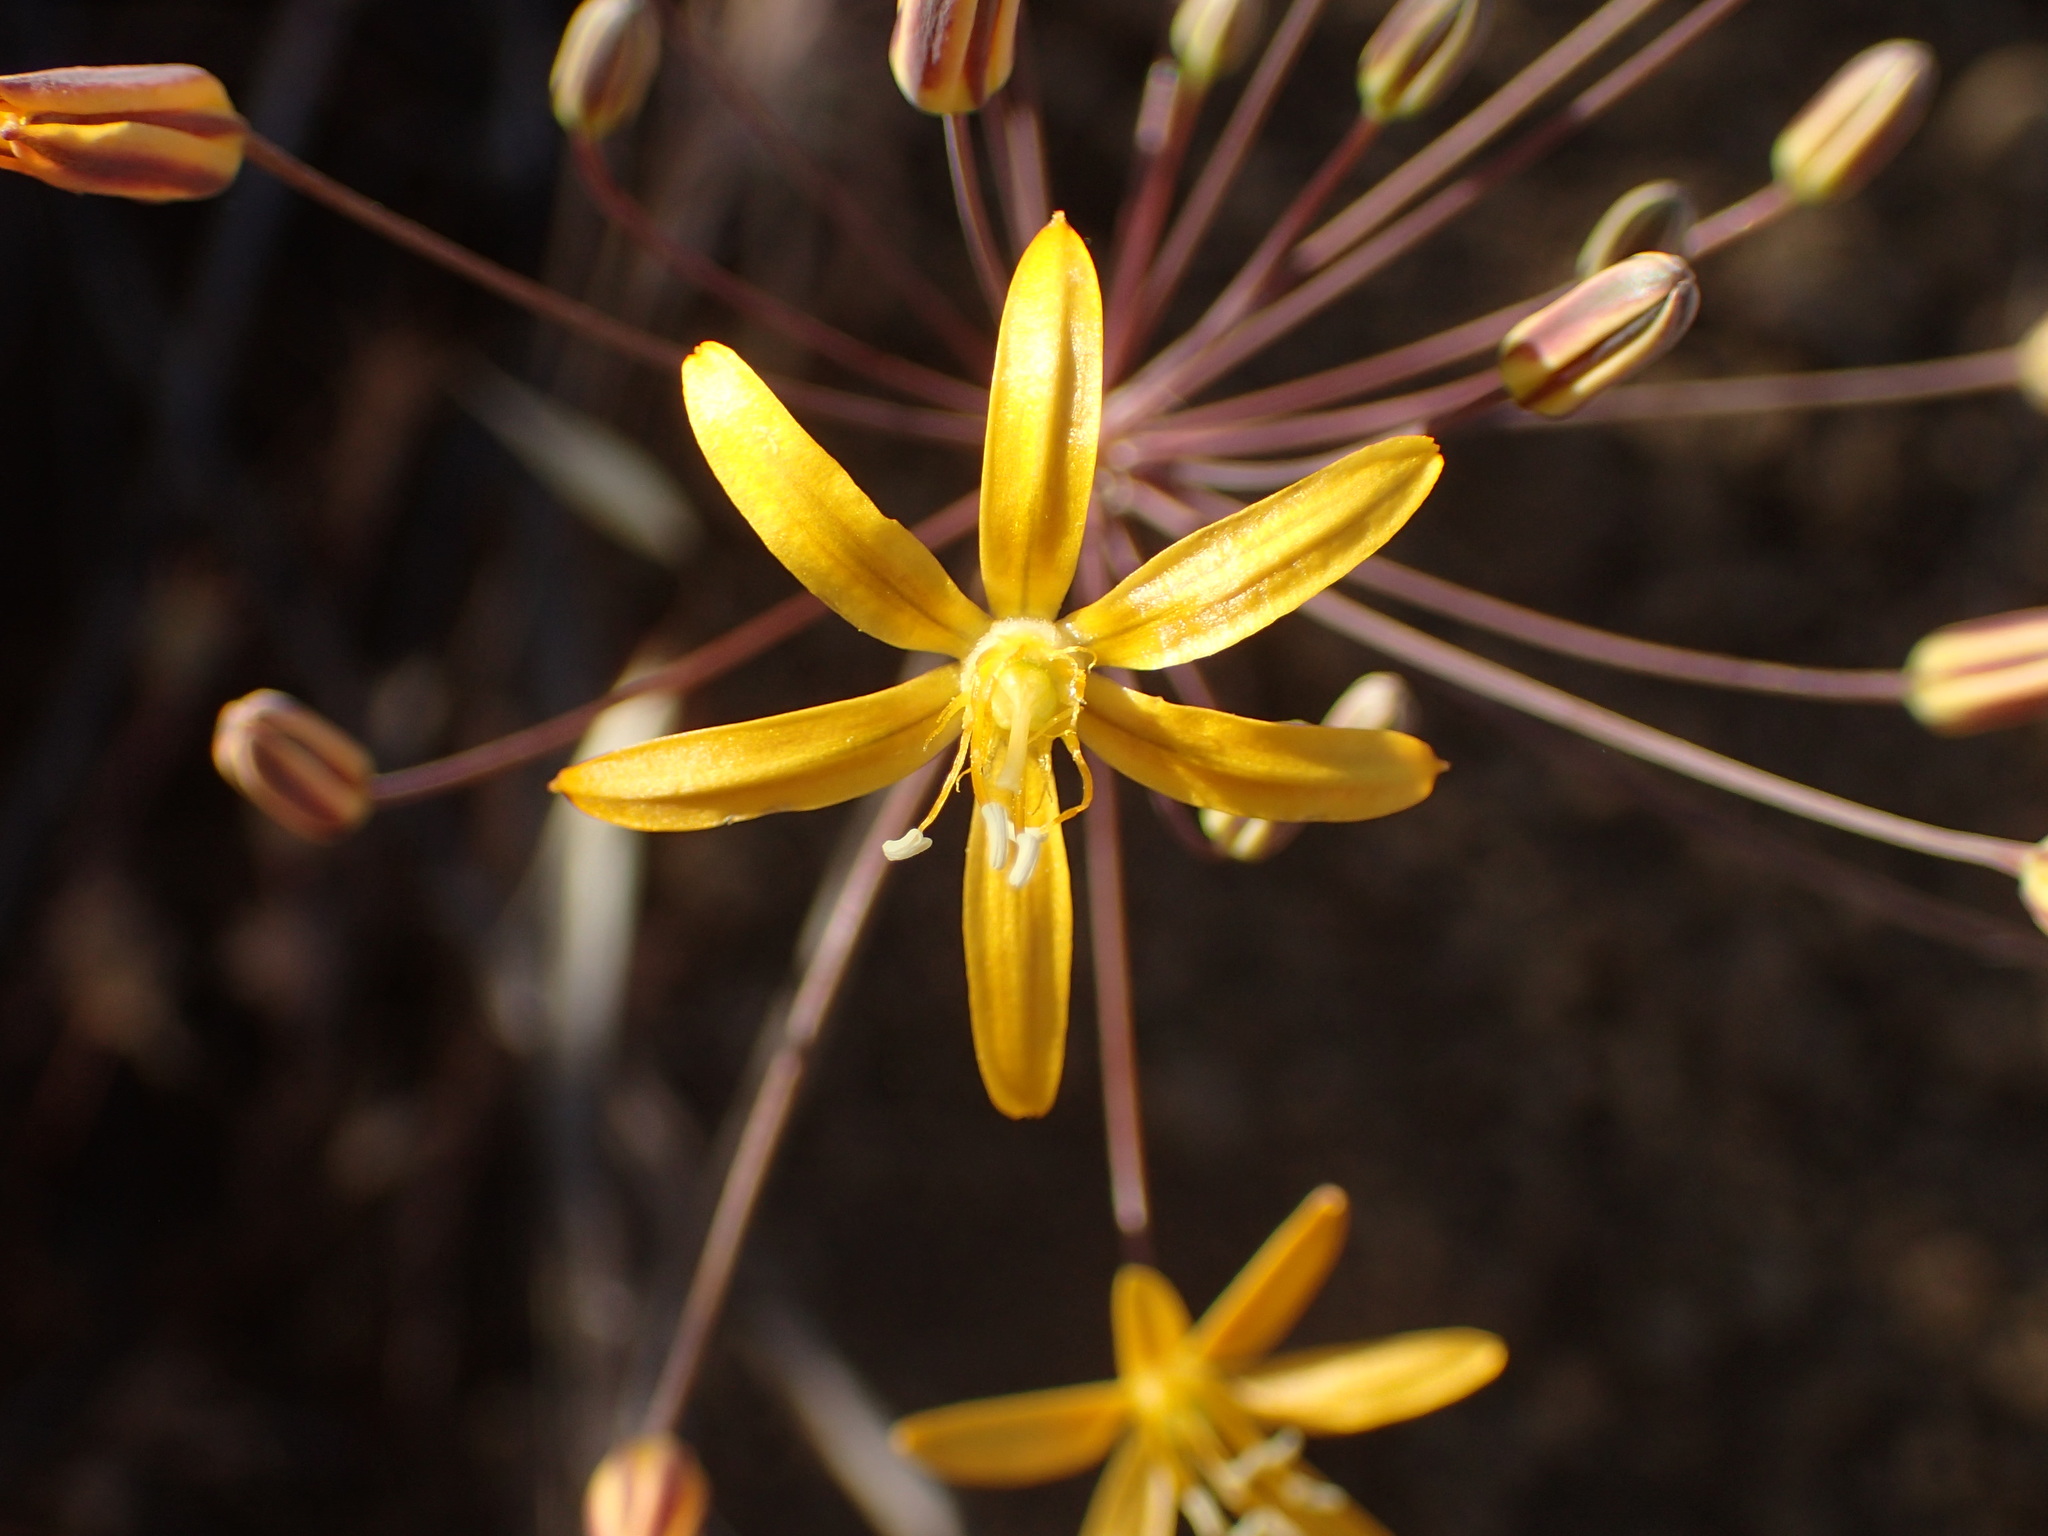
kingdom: Plantae
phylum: Tracheophyta
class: Liliopsida
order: Asparagales
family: Asparagaceae
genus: Bloomeria
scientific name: Bloomeria crocea
